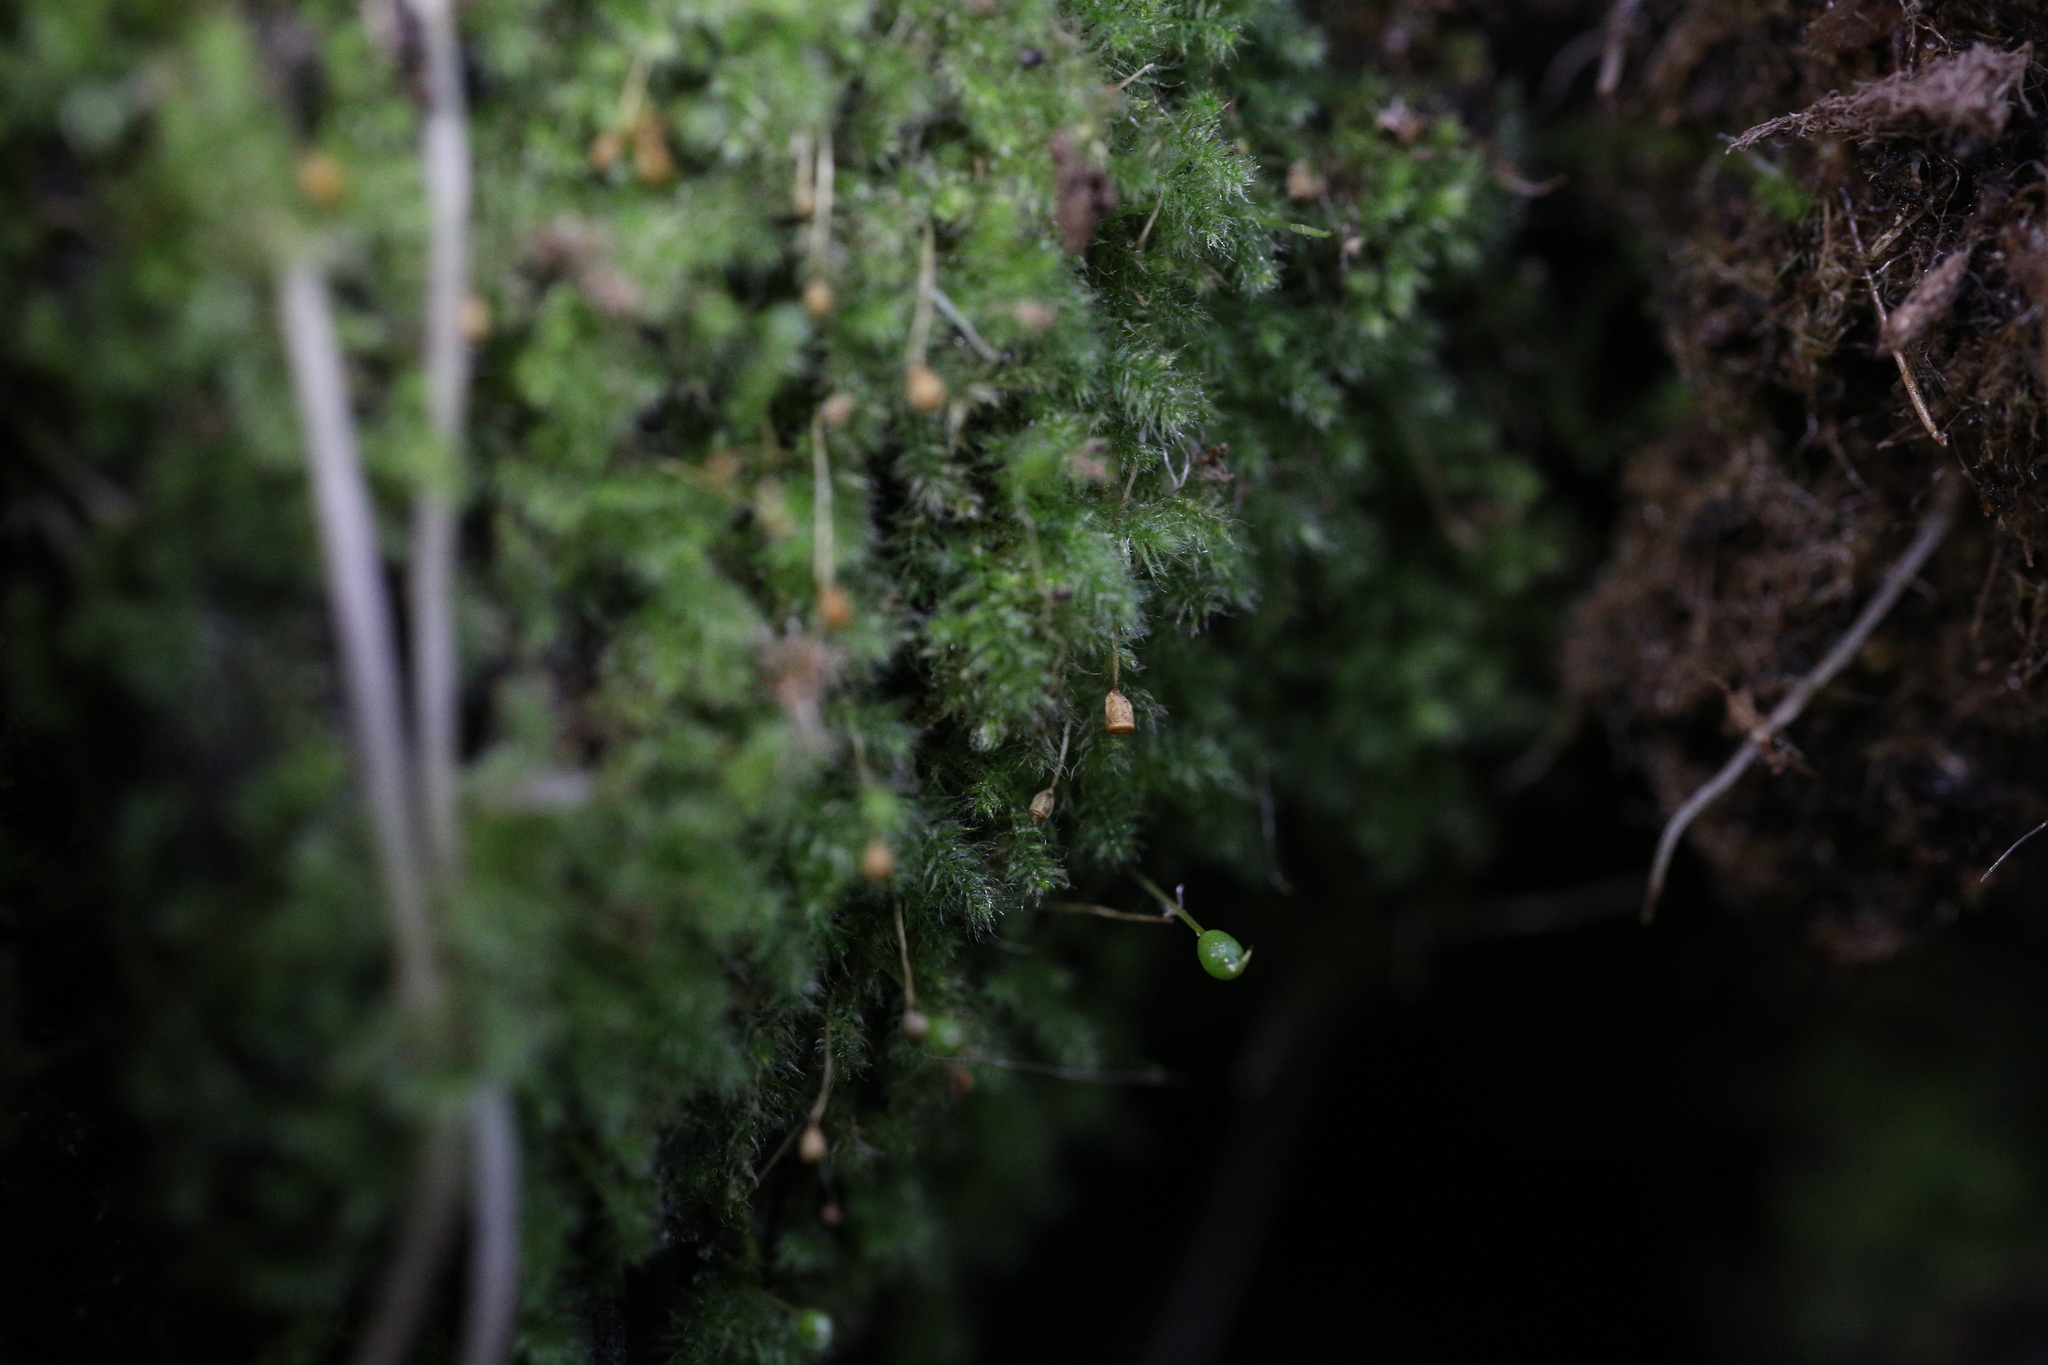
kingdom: Plantae
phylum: Bryophyta
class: Bryopsida
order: Hypnales
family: Fabroniaceae
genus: Fabronia
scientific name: Fabronia hampeana
